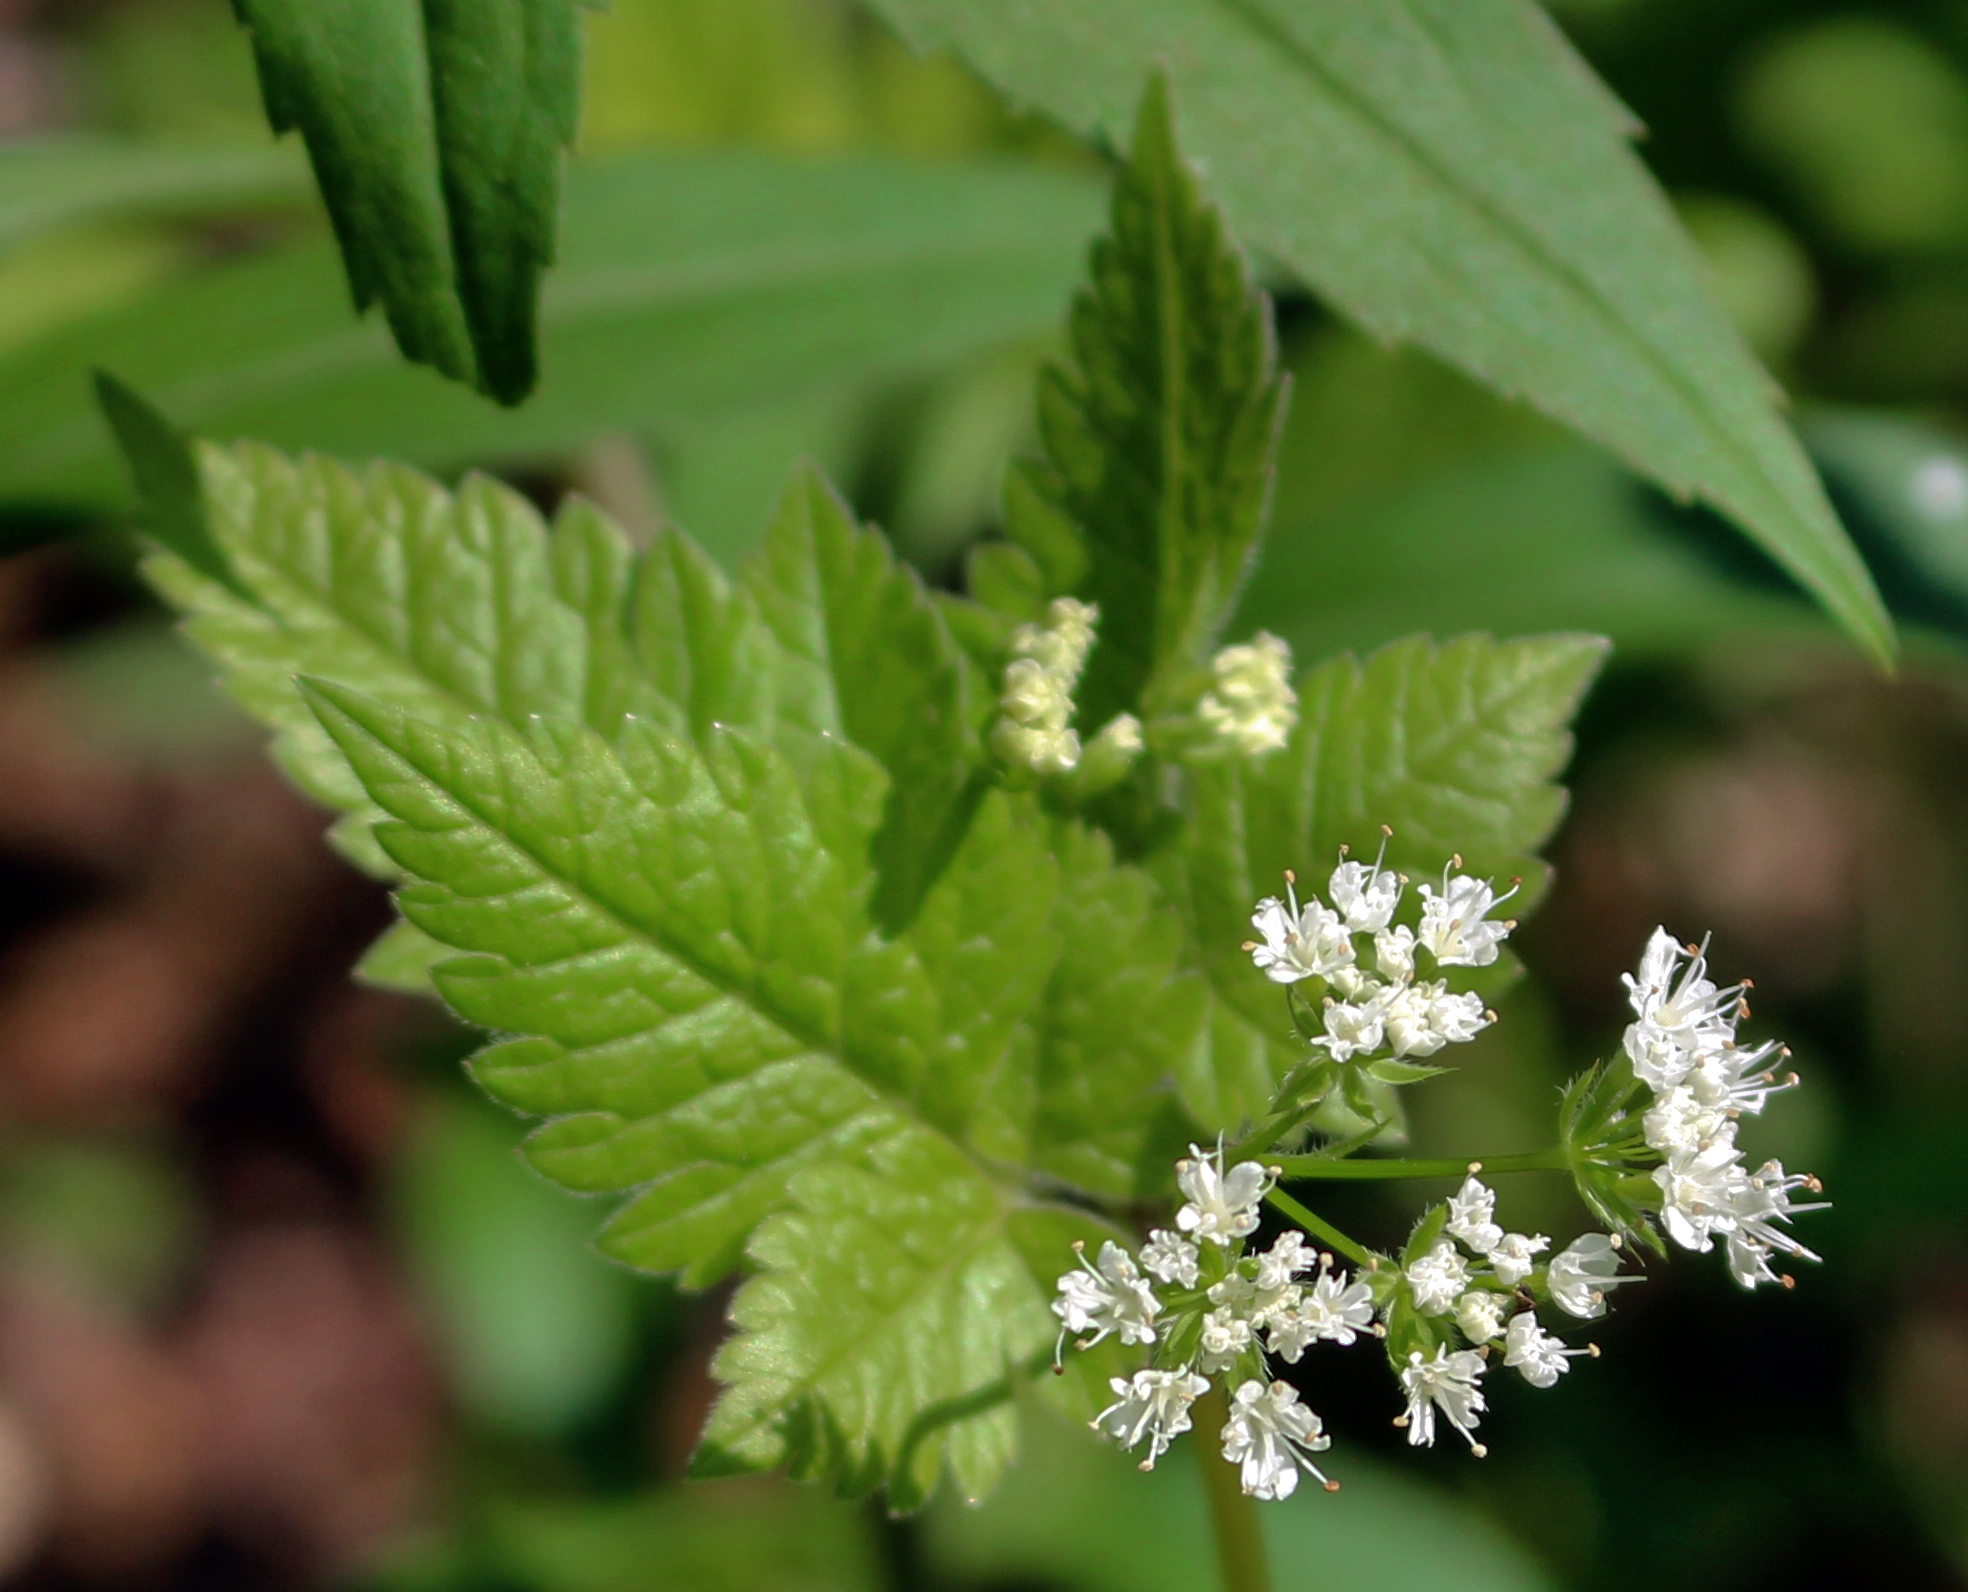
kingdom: Plantae
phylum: Tracheophyta
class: Magnoliopsida
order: Apiales
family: Apiaceae
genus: Osmorhiza
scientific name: Osmorhiza longistylis
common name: Smooth sweet cicely
